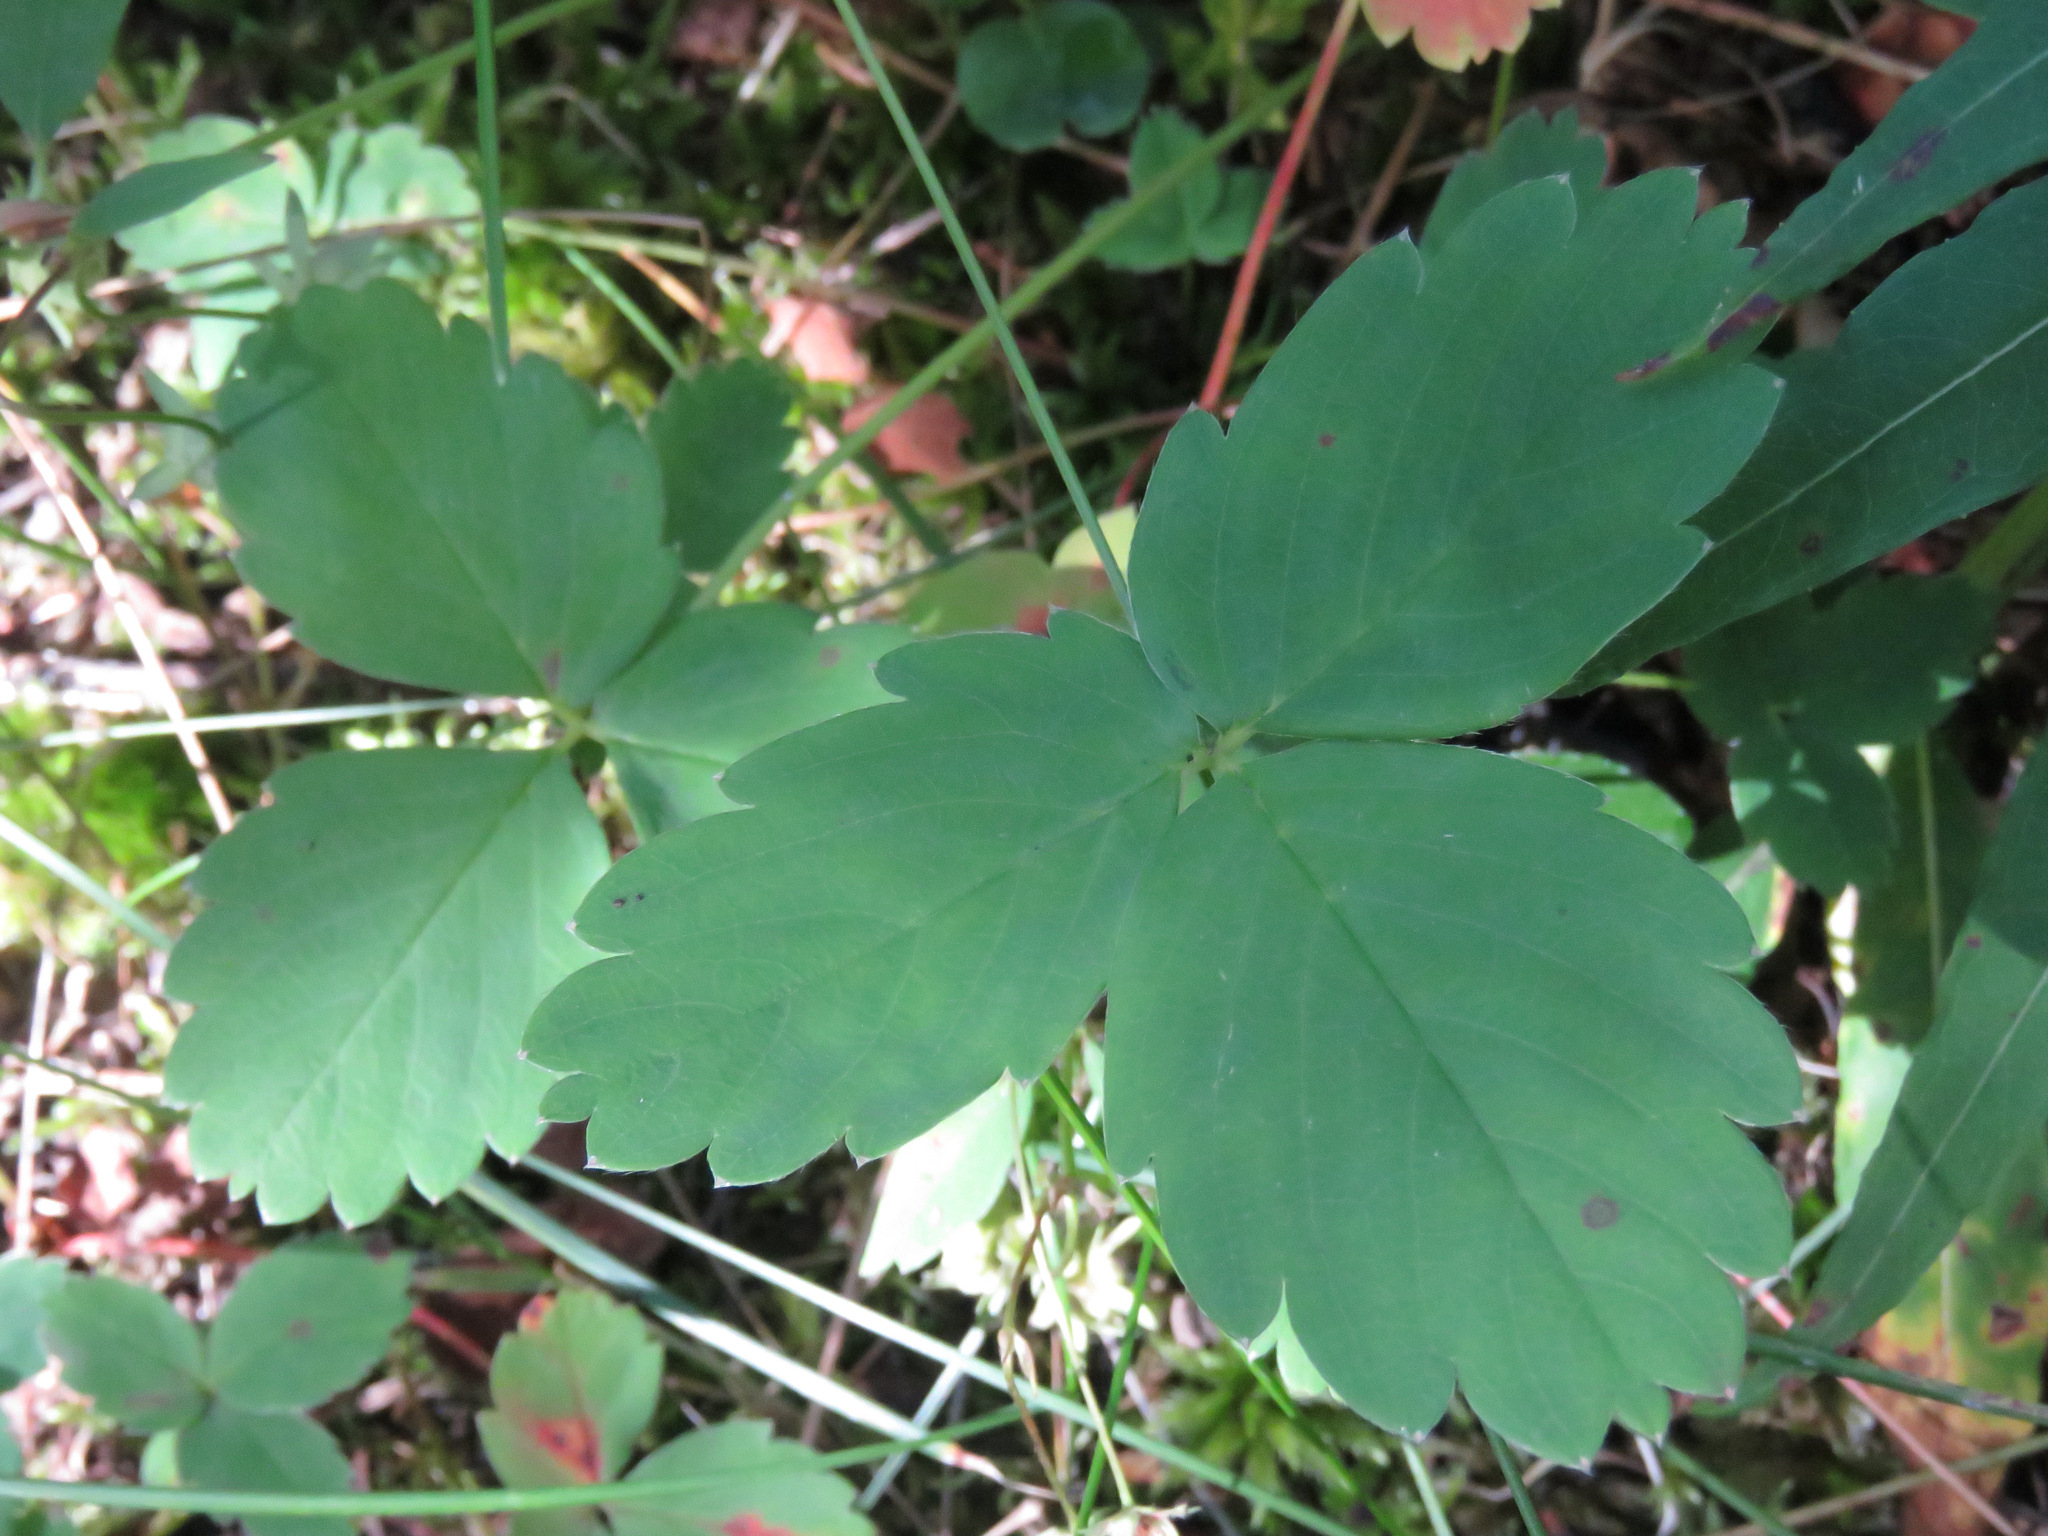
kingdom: Plantae
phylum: Tracheophyta
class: Magnoliopsida
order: Rosales
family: Rosaceae
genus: Fragaria
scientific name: Fragaria virginiana
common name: Thickleaved wild strawberry
